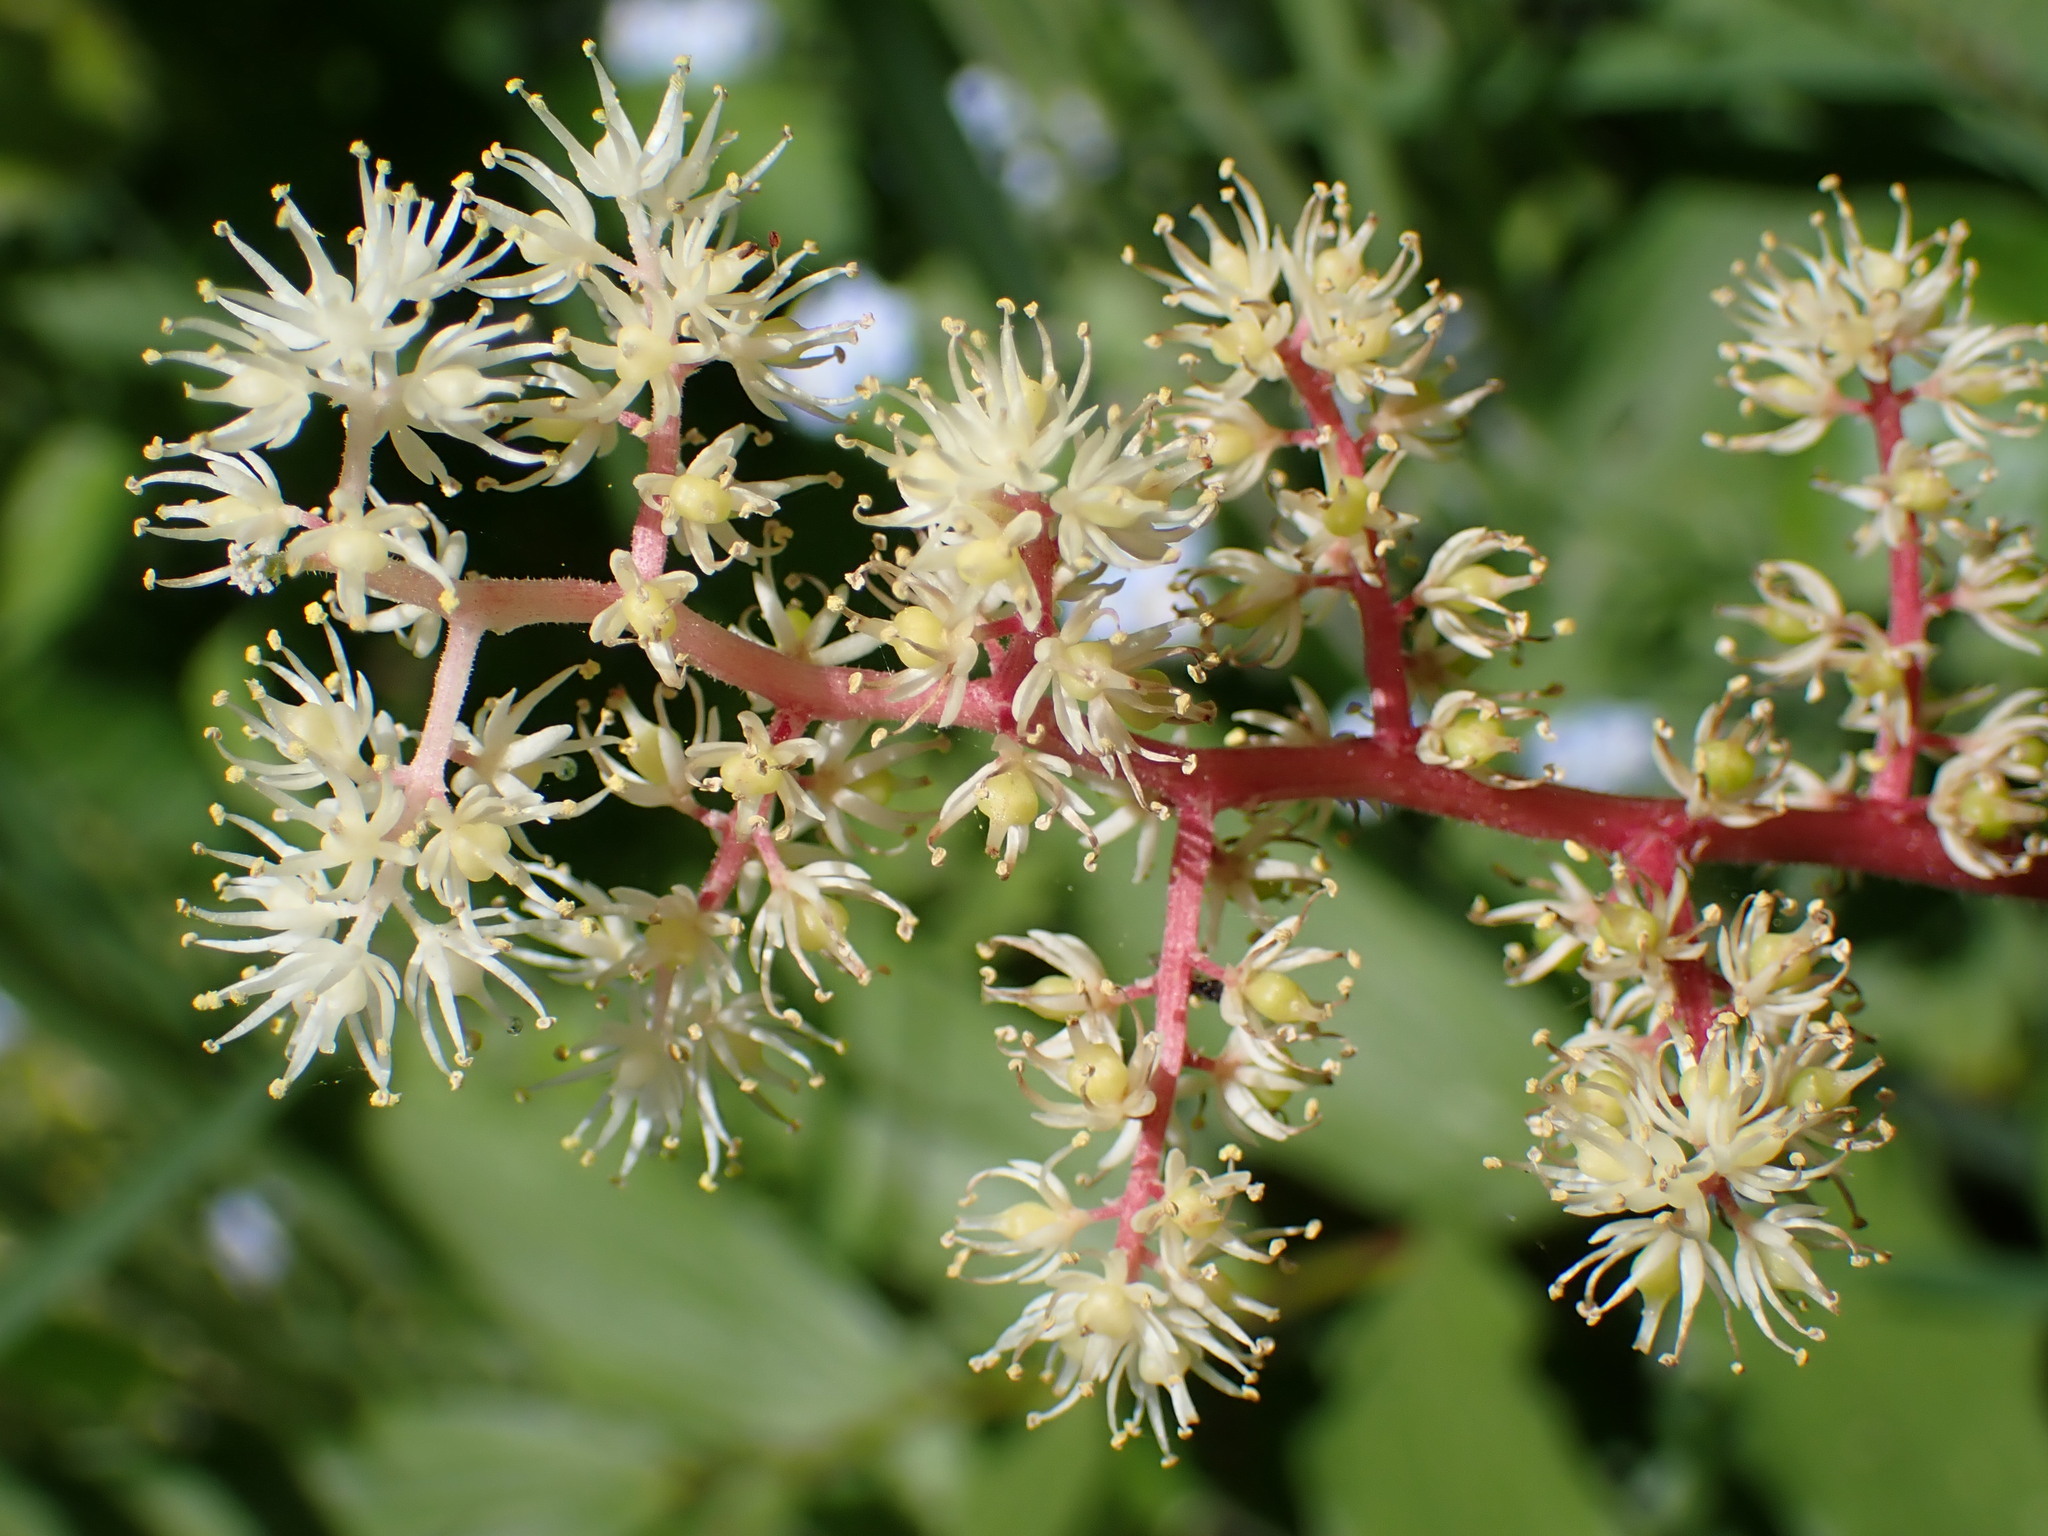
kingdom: Plantae
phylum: Tracheophyta
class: Liliopsida
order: Asparagales
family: Asparagaceae
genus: Maianthemum
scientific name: Maianthemum racemosum
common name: False spikenard
